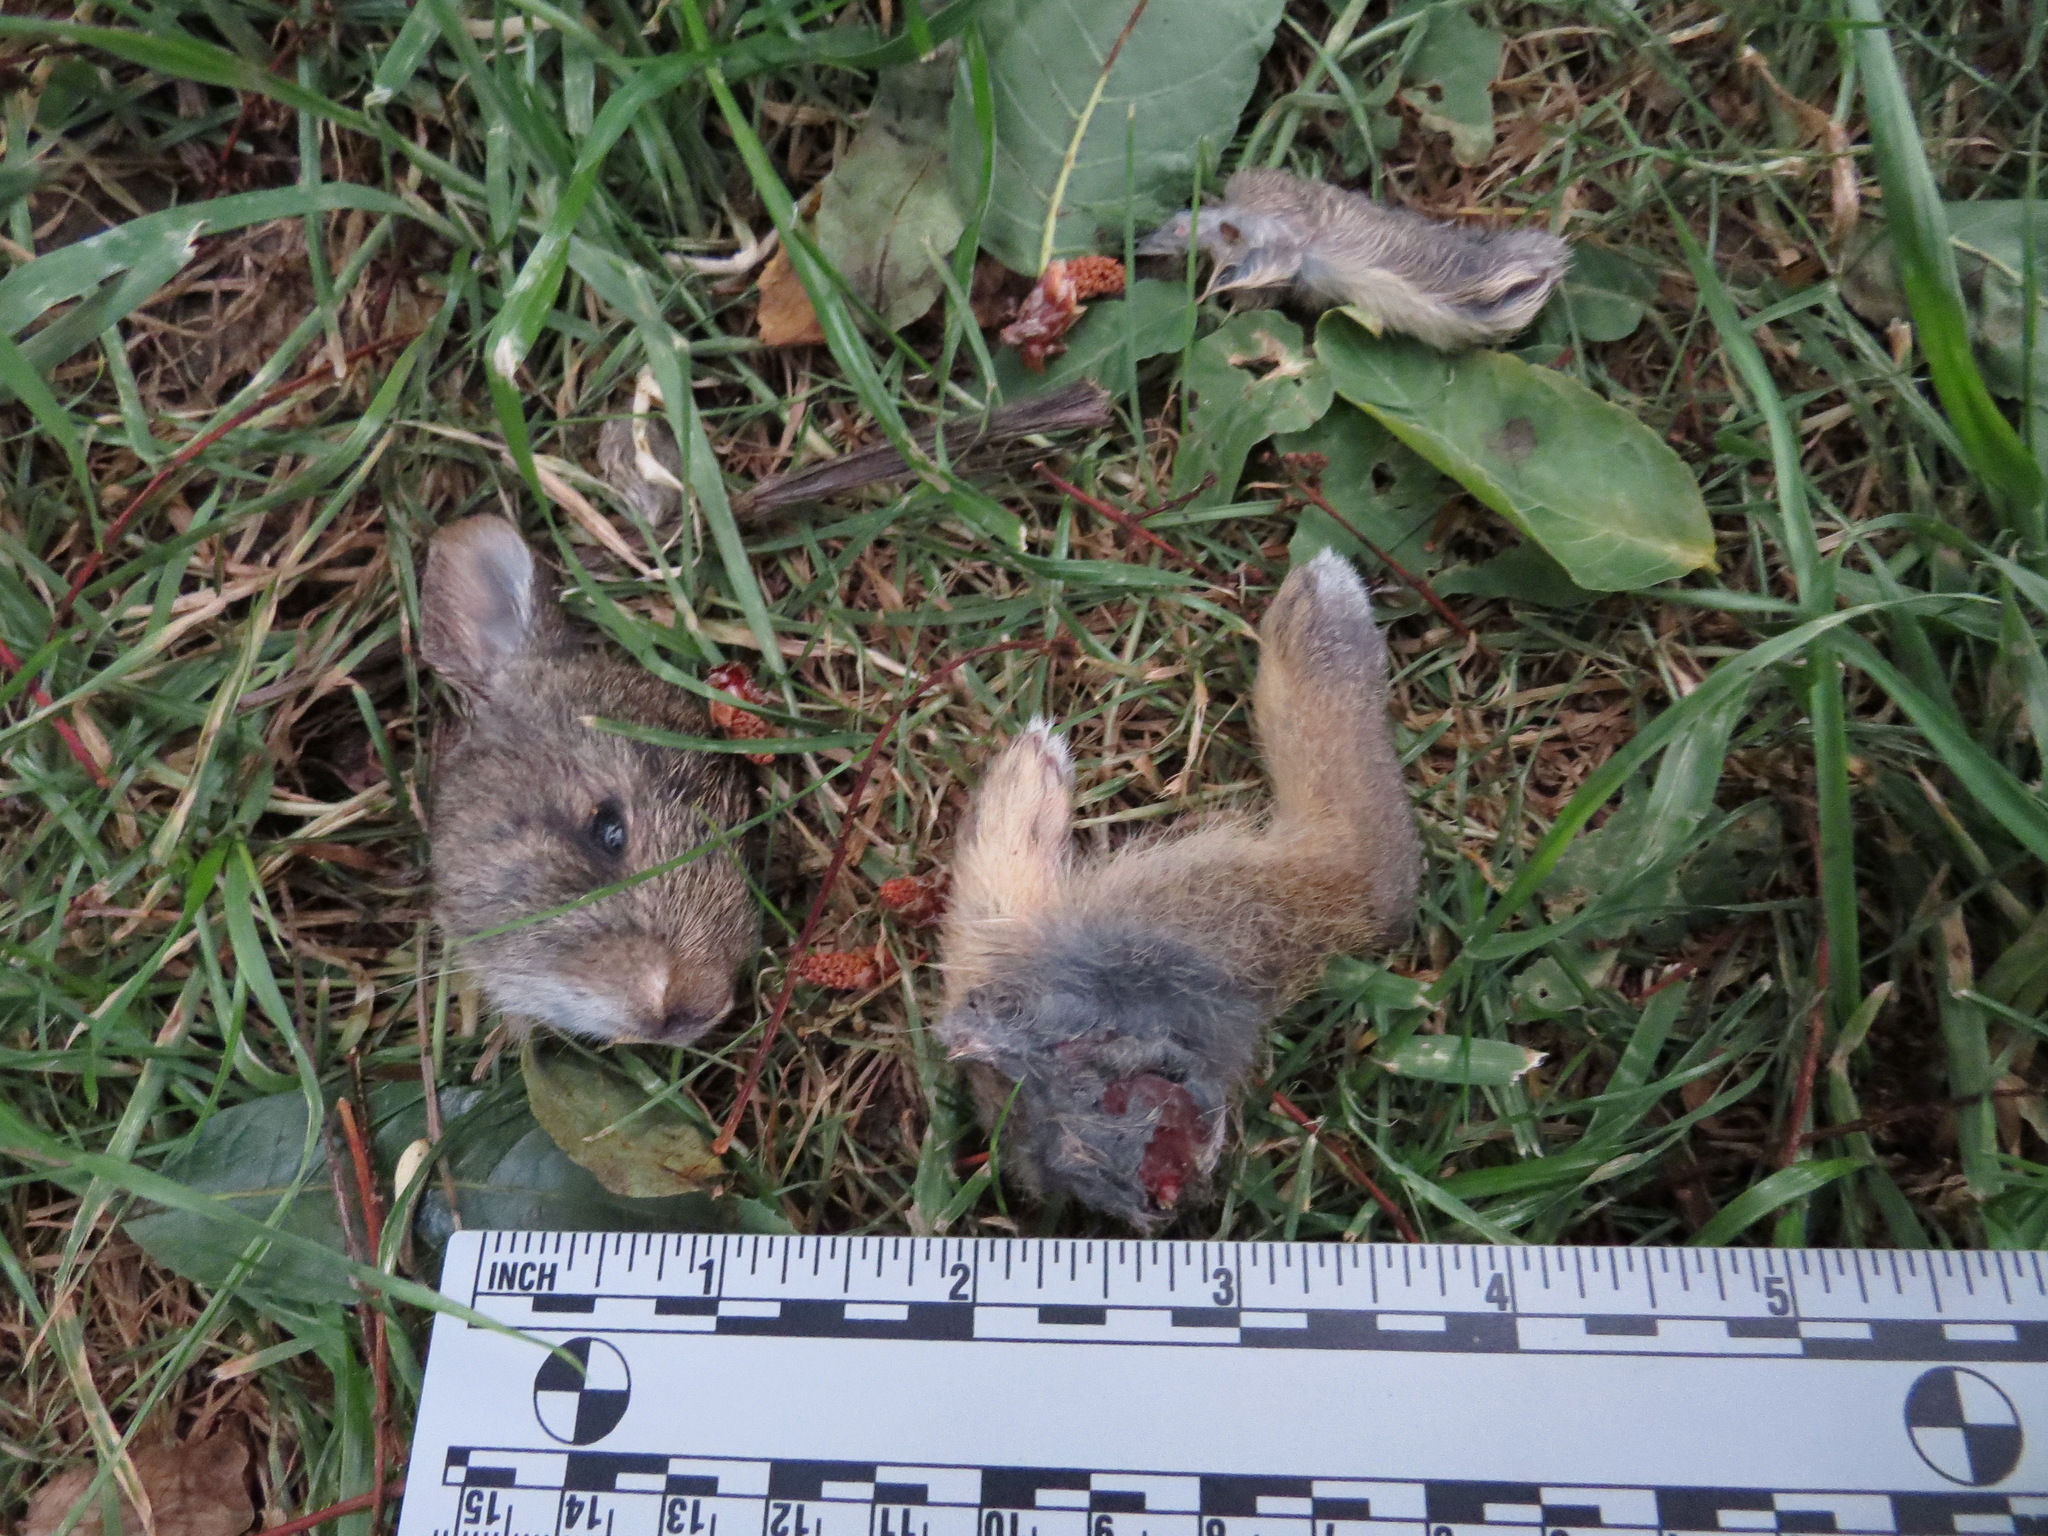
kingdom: Animalia
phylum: Chordata
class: Mammalia
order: Lagomorpha
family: Leporidae
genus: Sylvilagus
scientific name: Sylvilagus bachmani
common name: Brush rabbit
